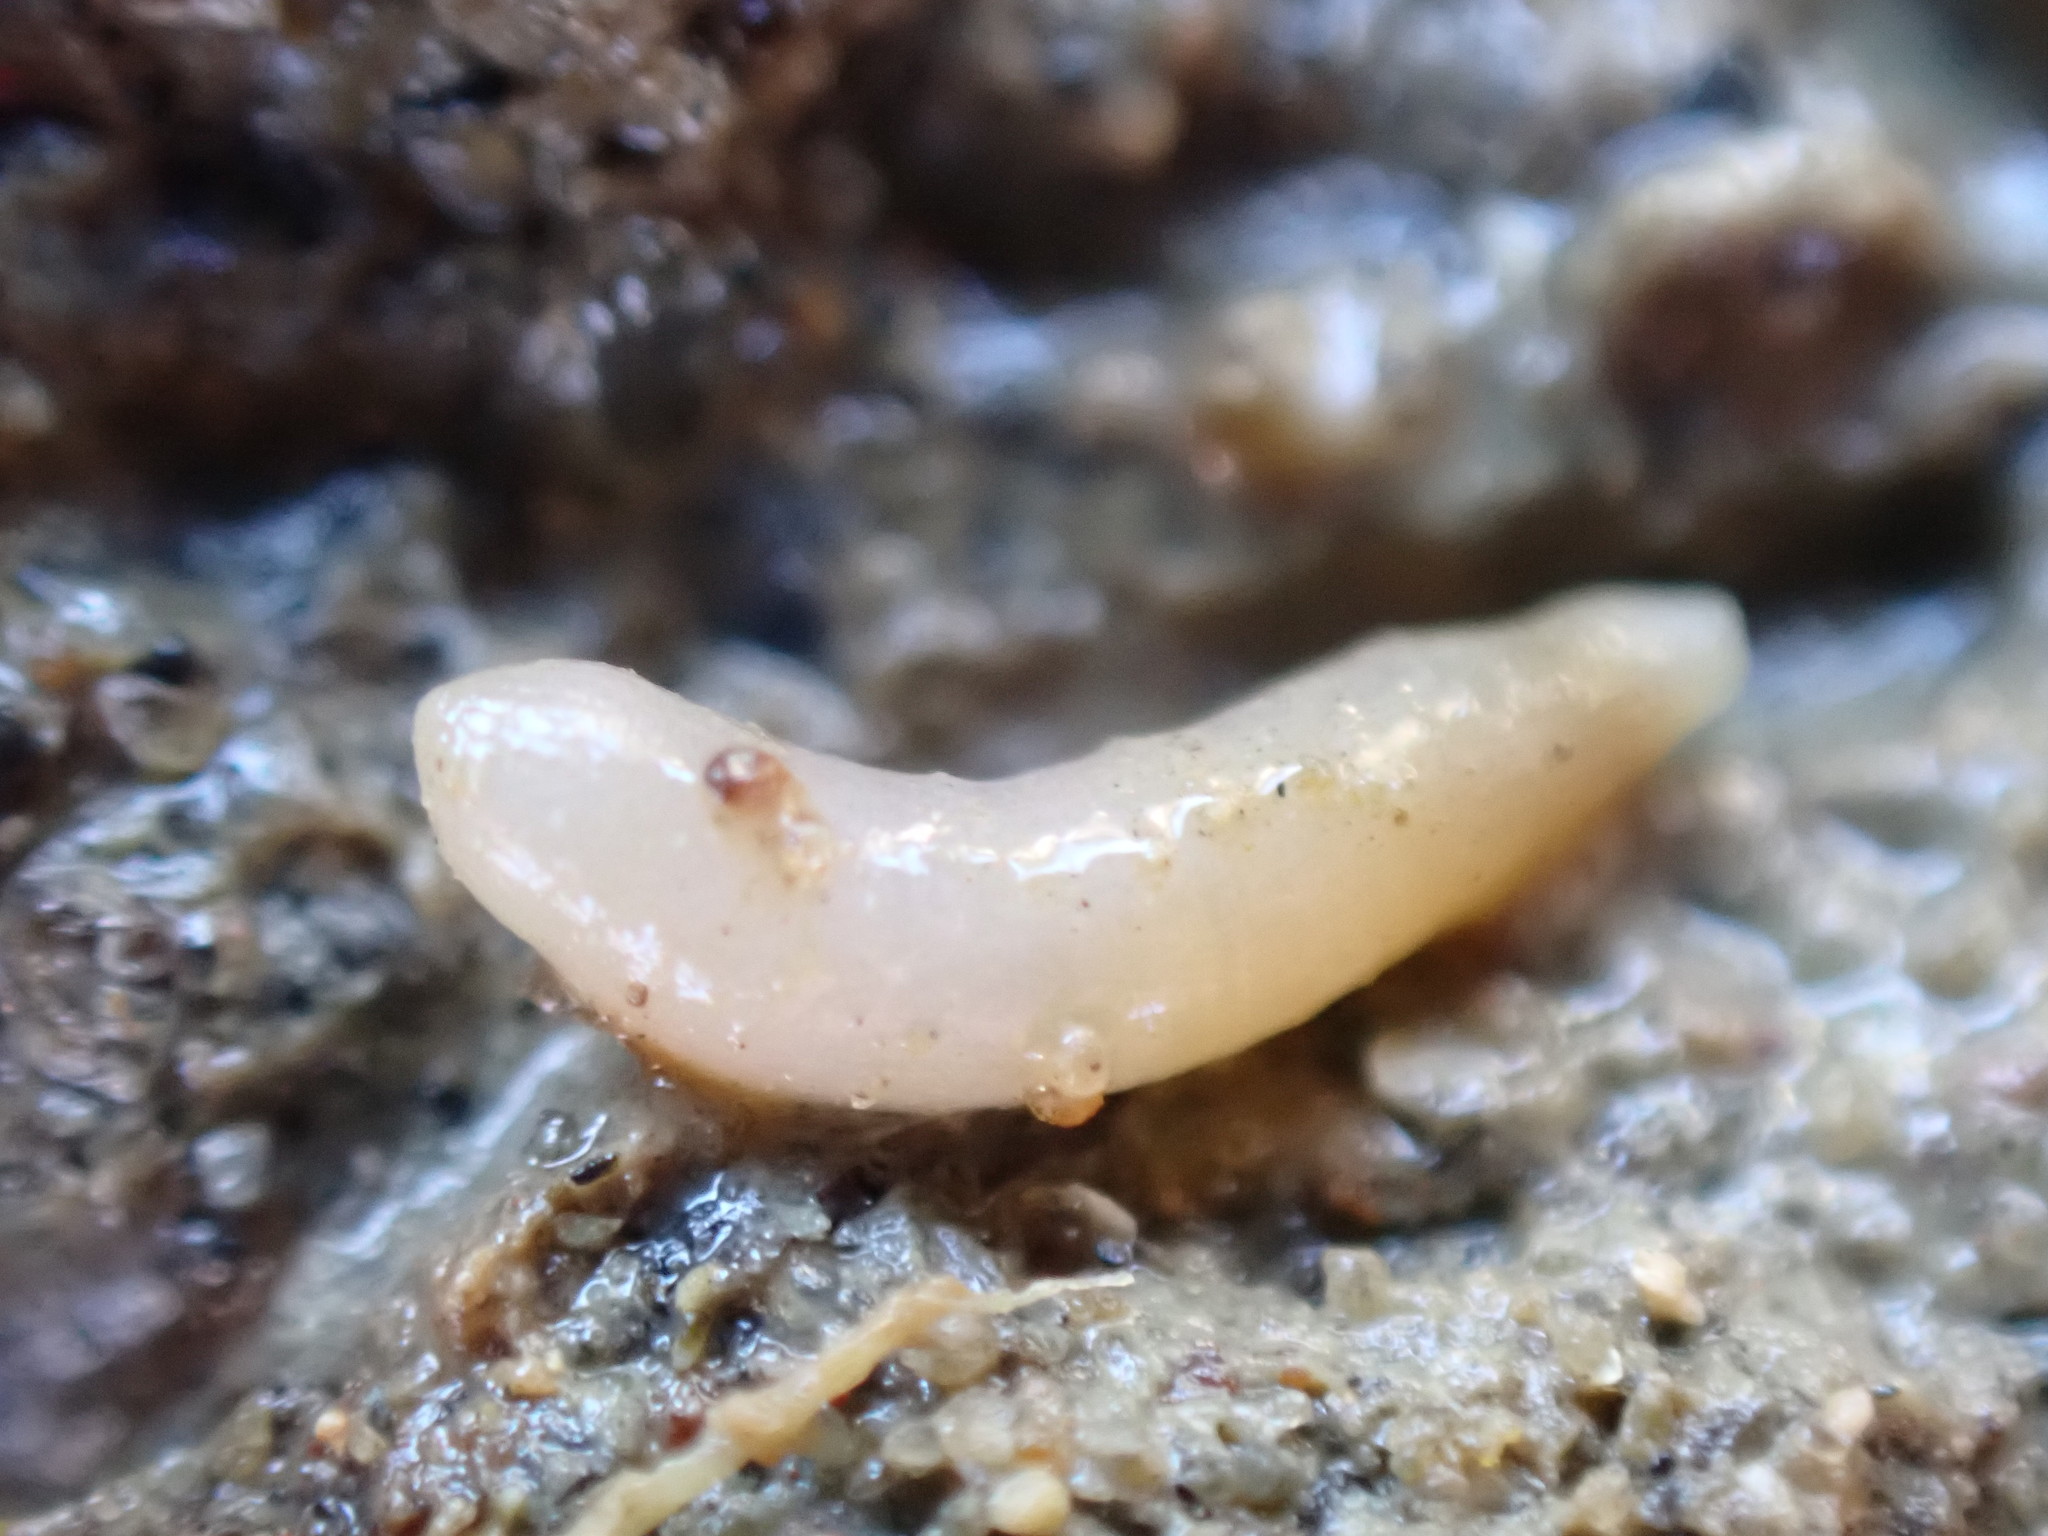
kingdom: Animalia
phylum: Sipuncula
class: Sipunculidea
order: Golfingiiformes
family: Themistidae
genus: Themiste
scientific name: Themiste minor
